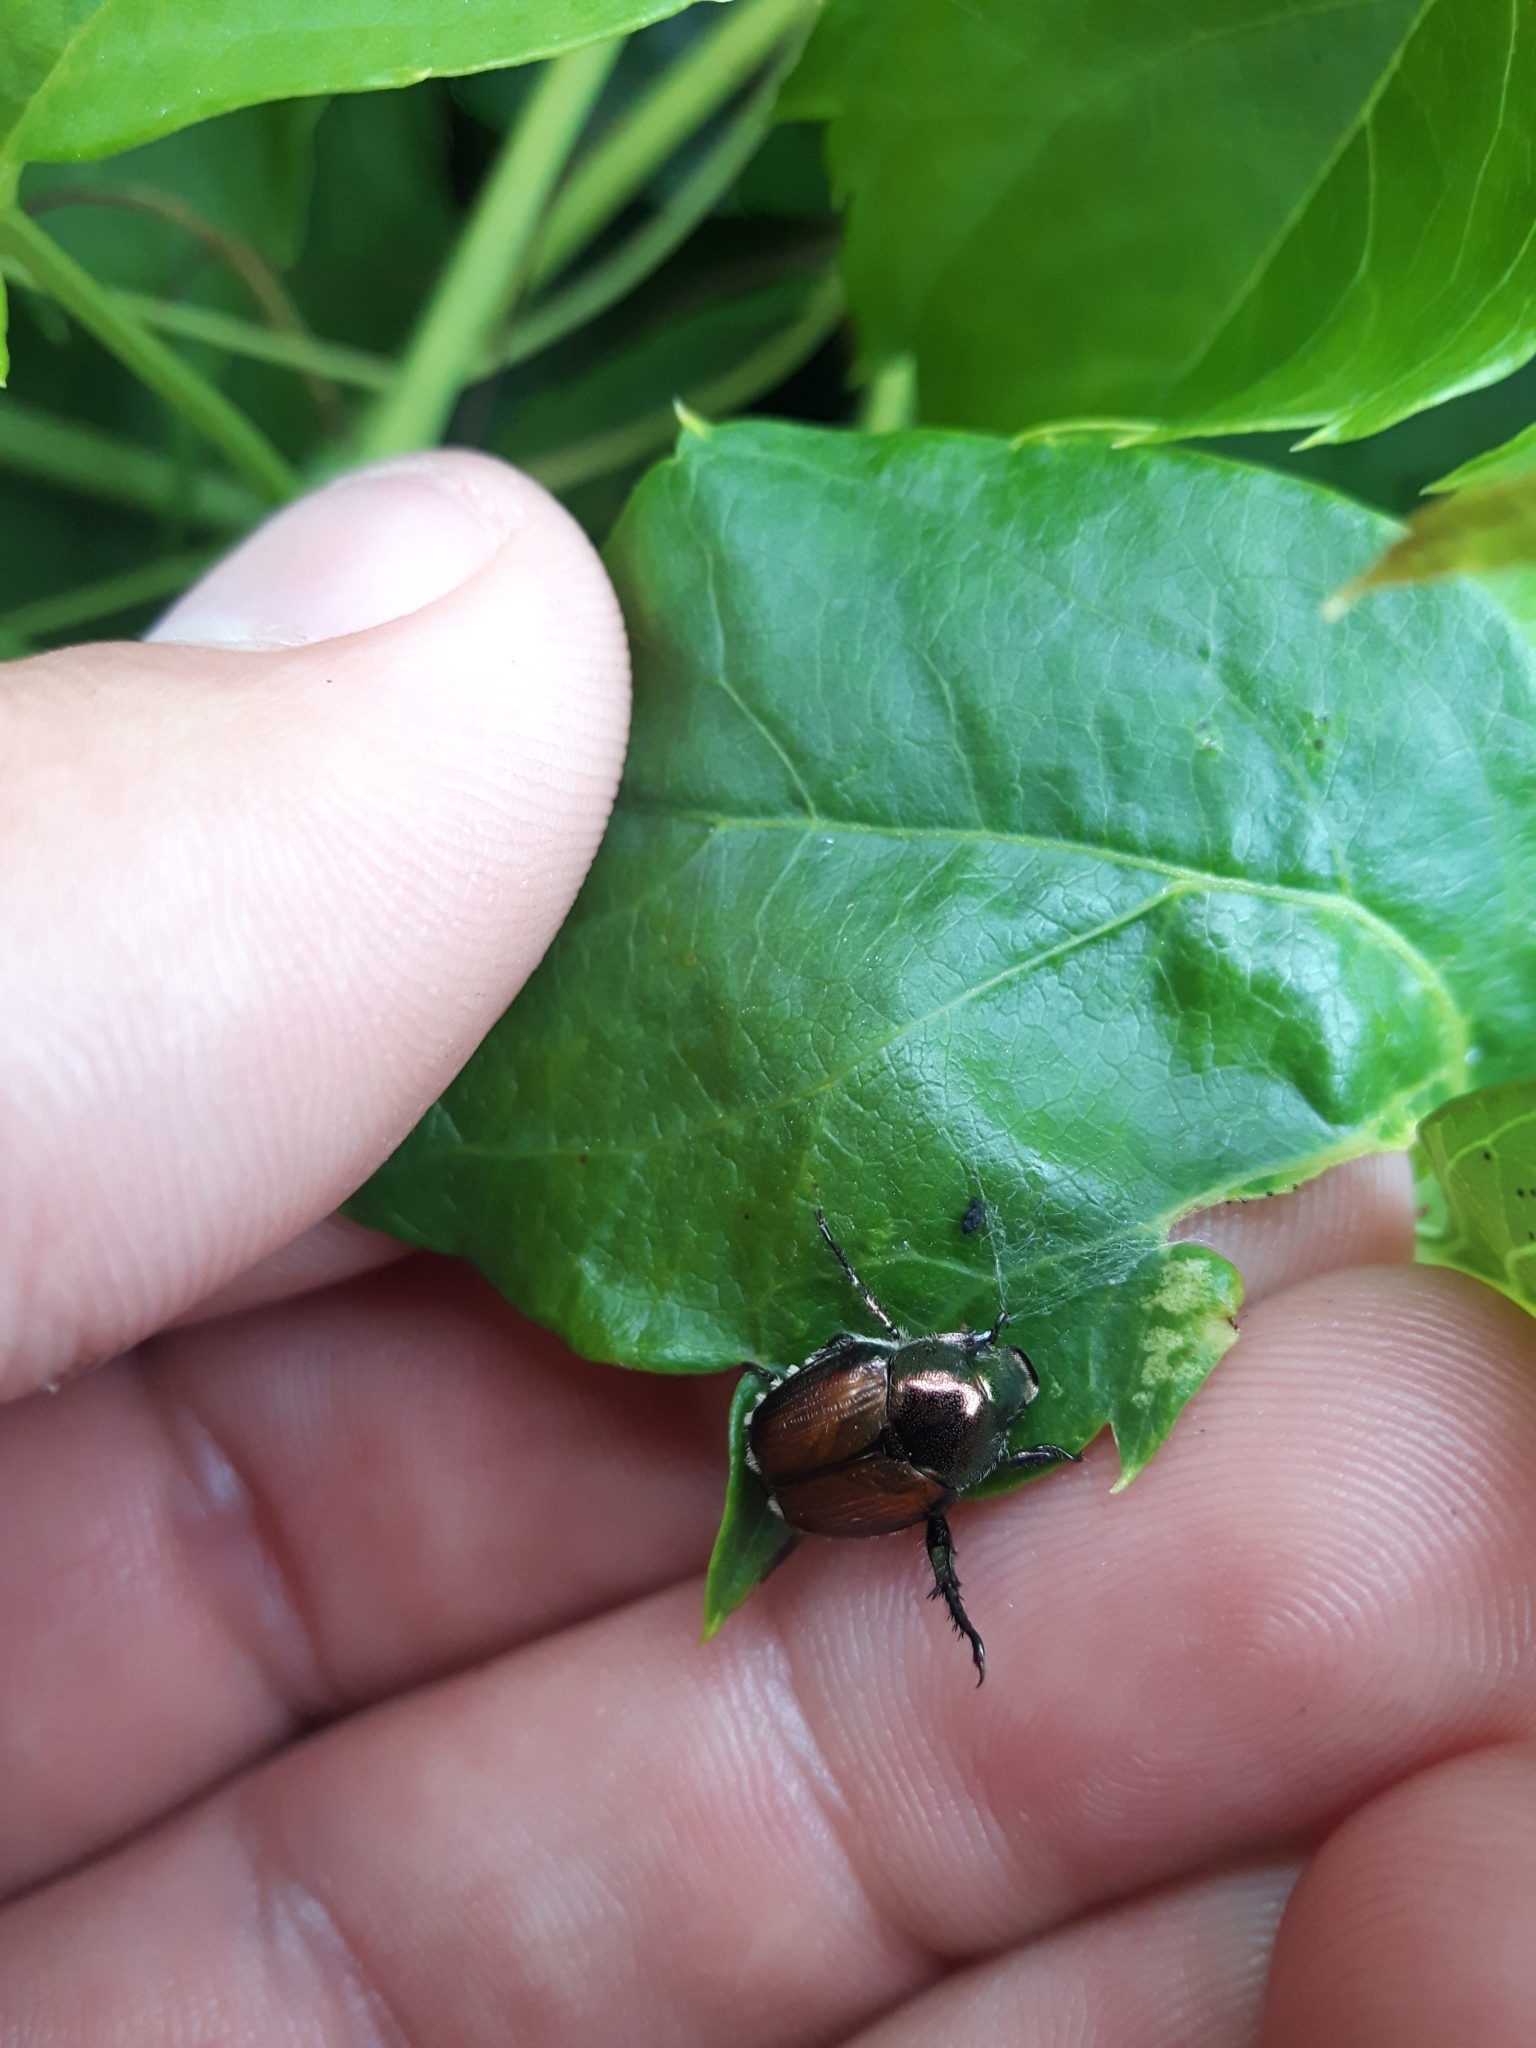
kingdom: Animalia
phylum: Arthropoda
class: Insecta
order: Coleoptera
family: Scarabaeidae
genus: Popillia
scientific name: Popillia japonica
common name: Japanese beetle
